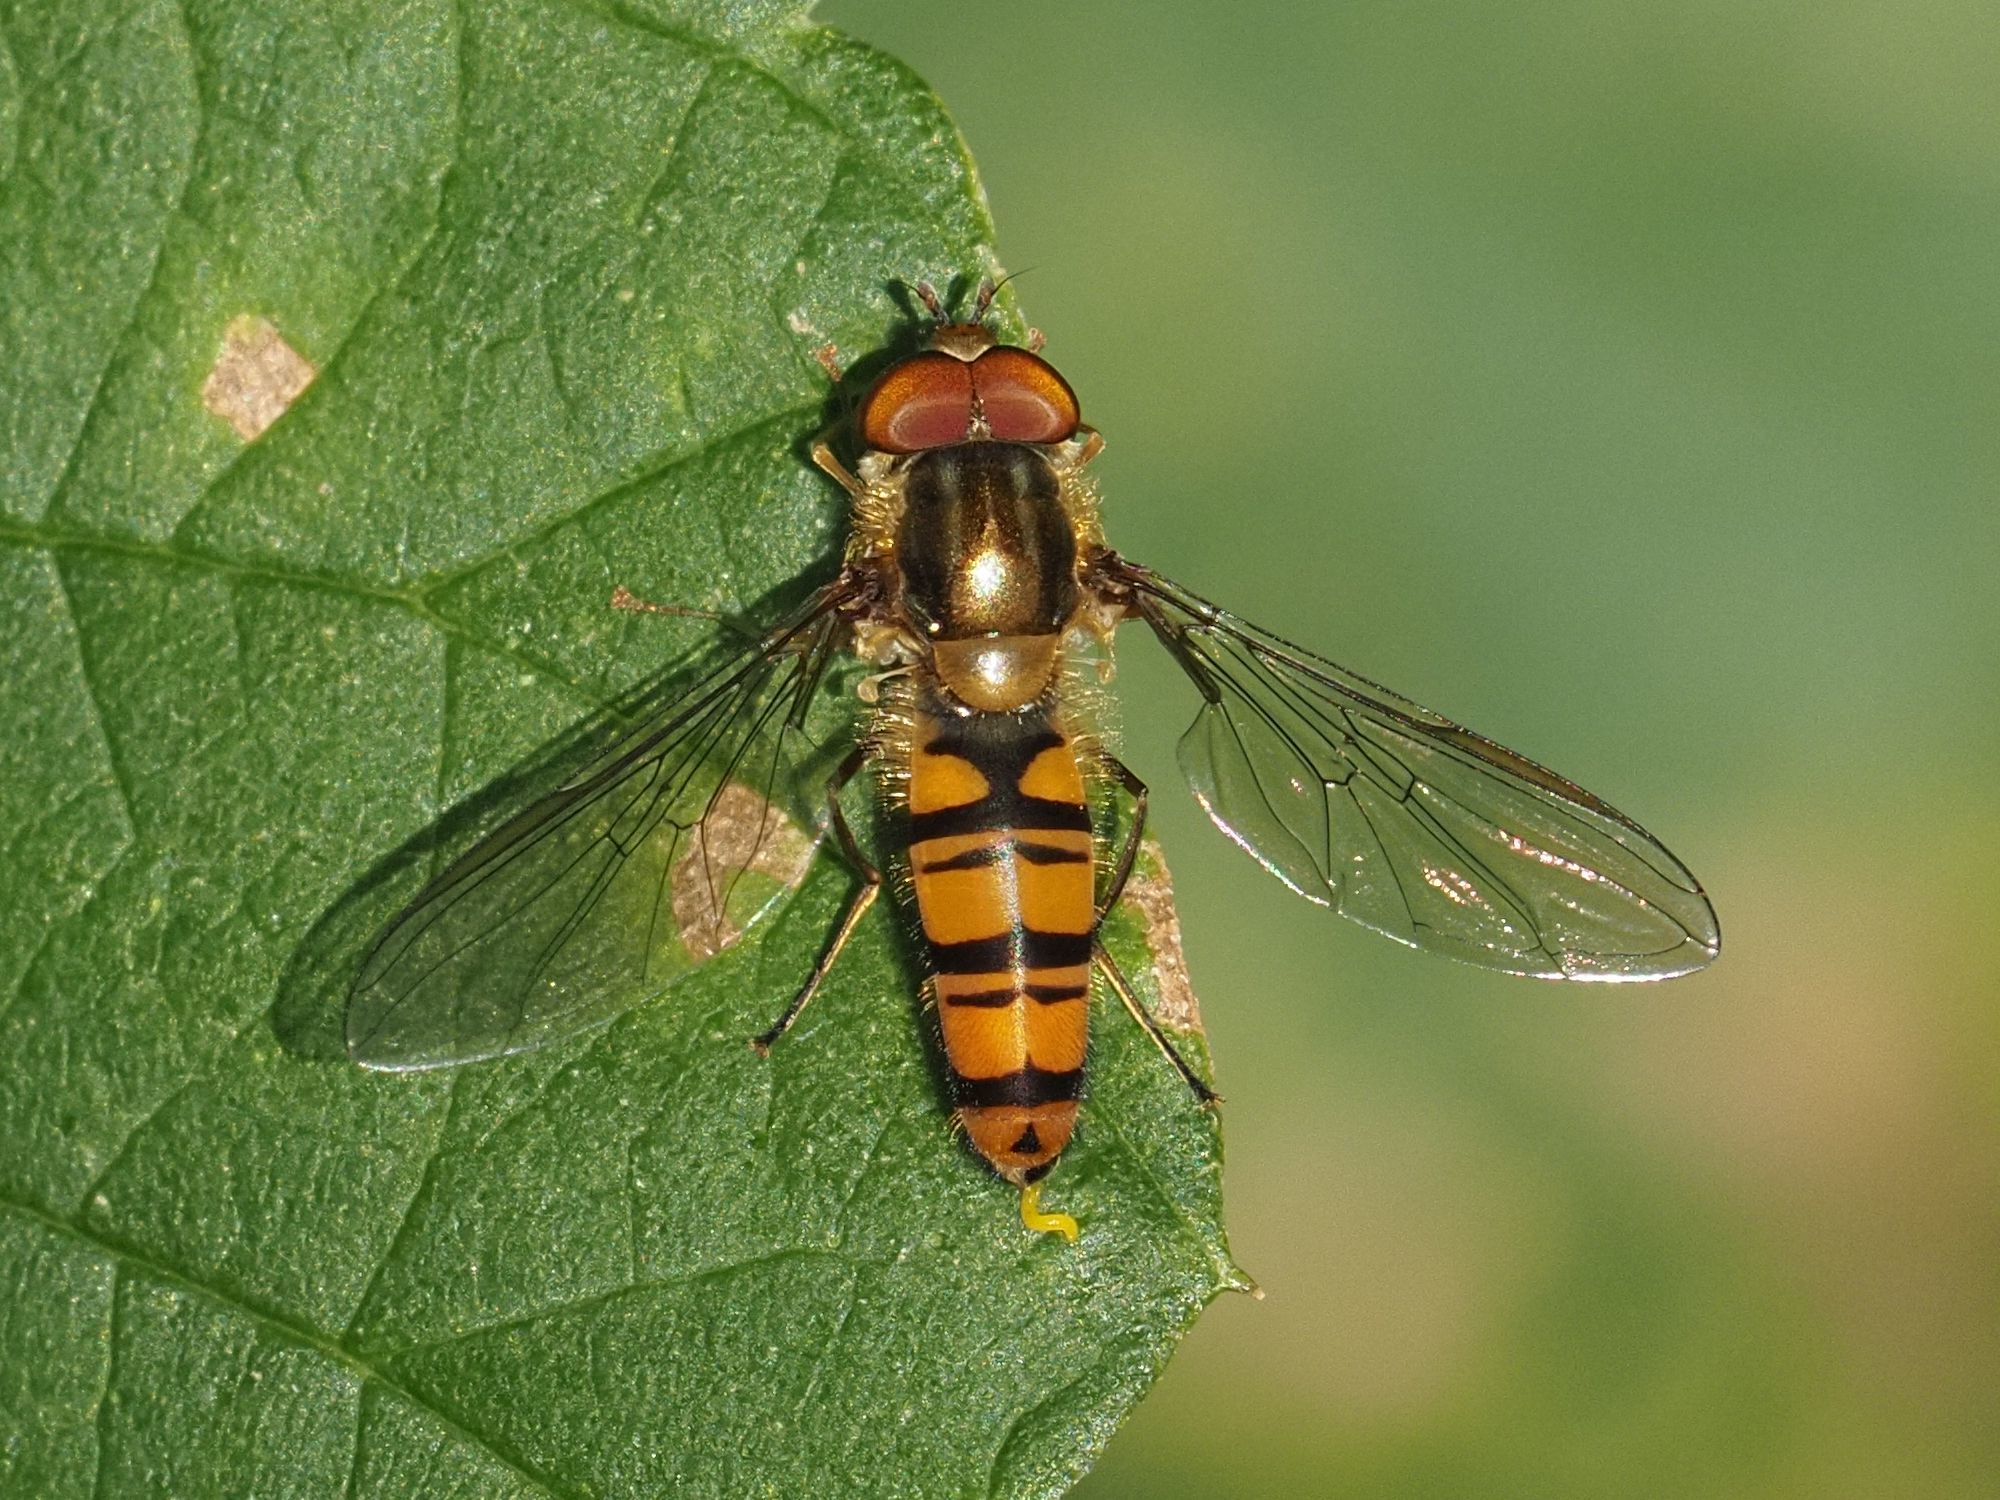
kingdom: Animalia
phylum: Arthropoda
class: Insecta
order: Diptera
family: Syrphidae
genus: Episyrphus
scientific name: Episyrphus balteatus
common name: Marmalade hoverfly
